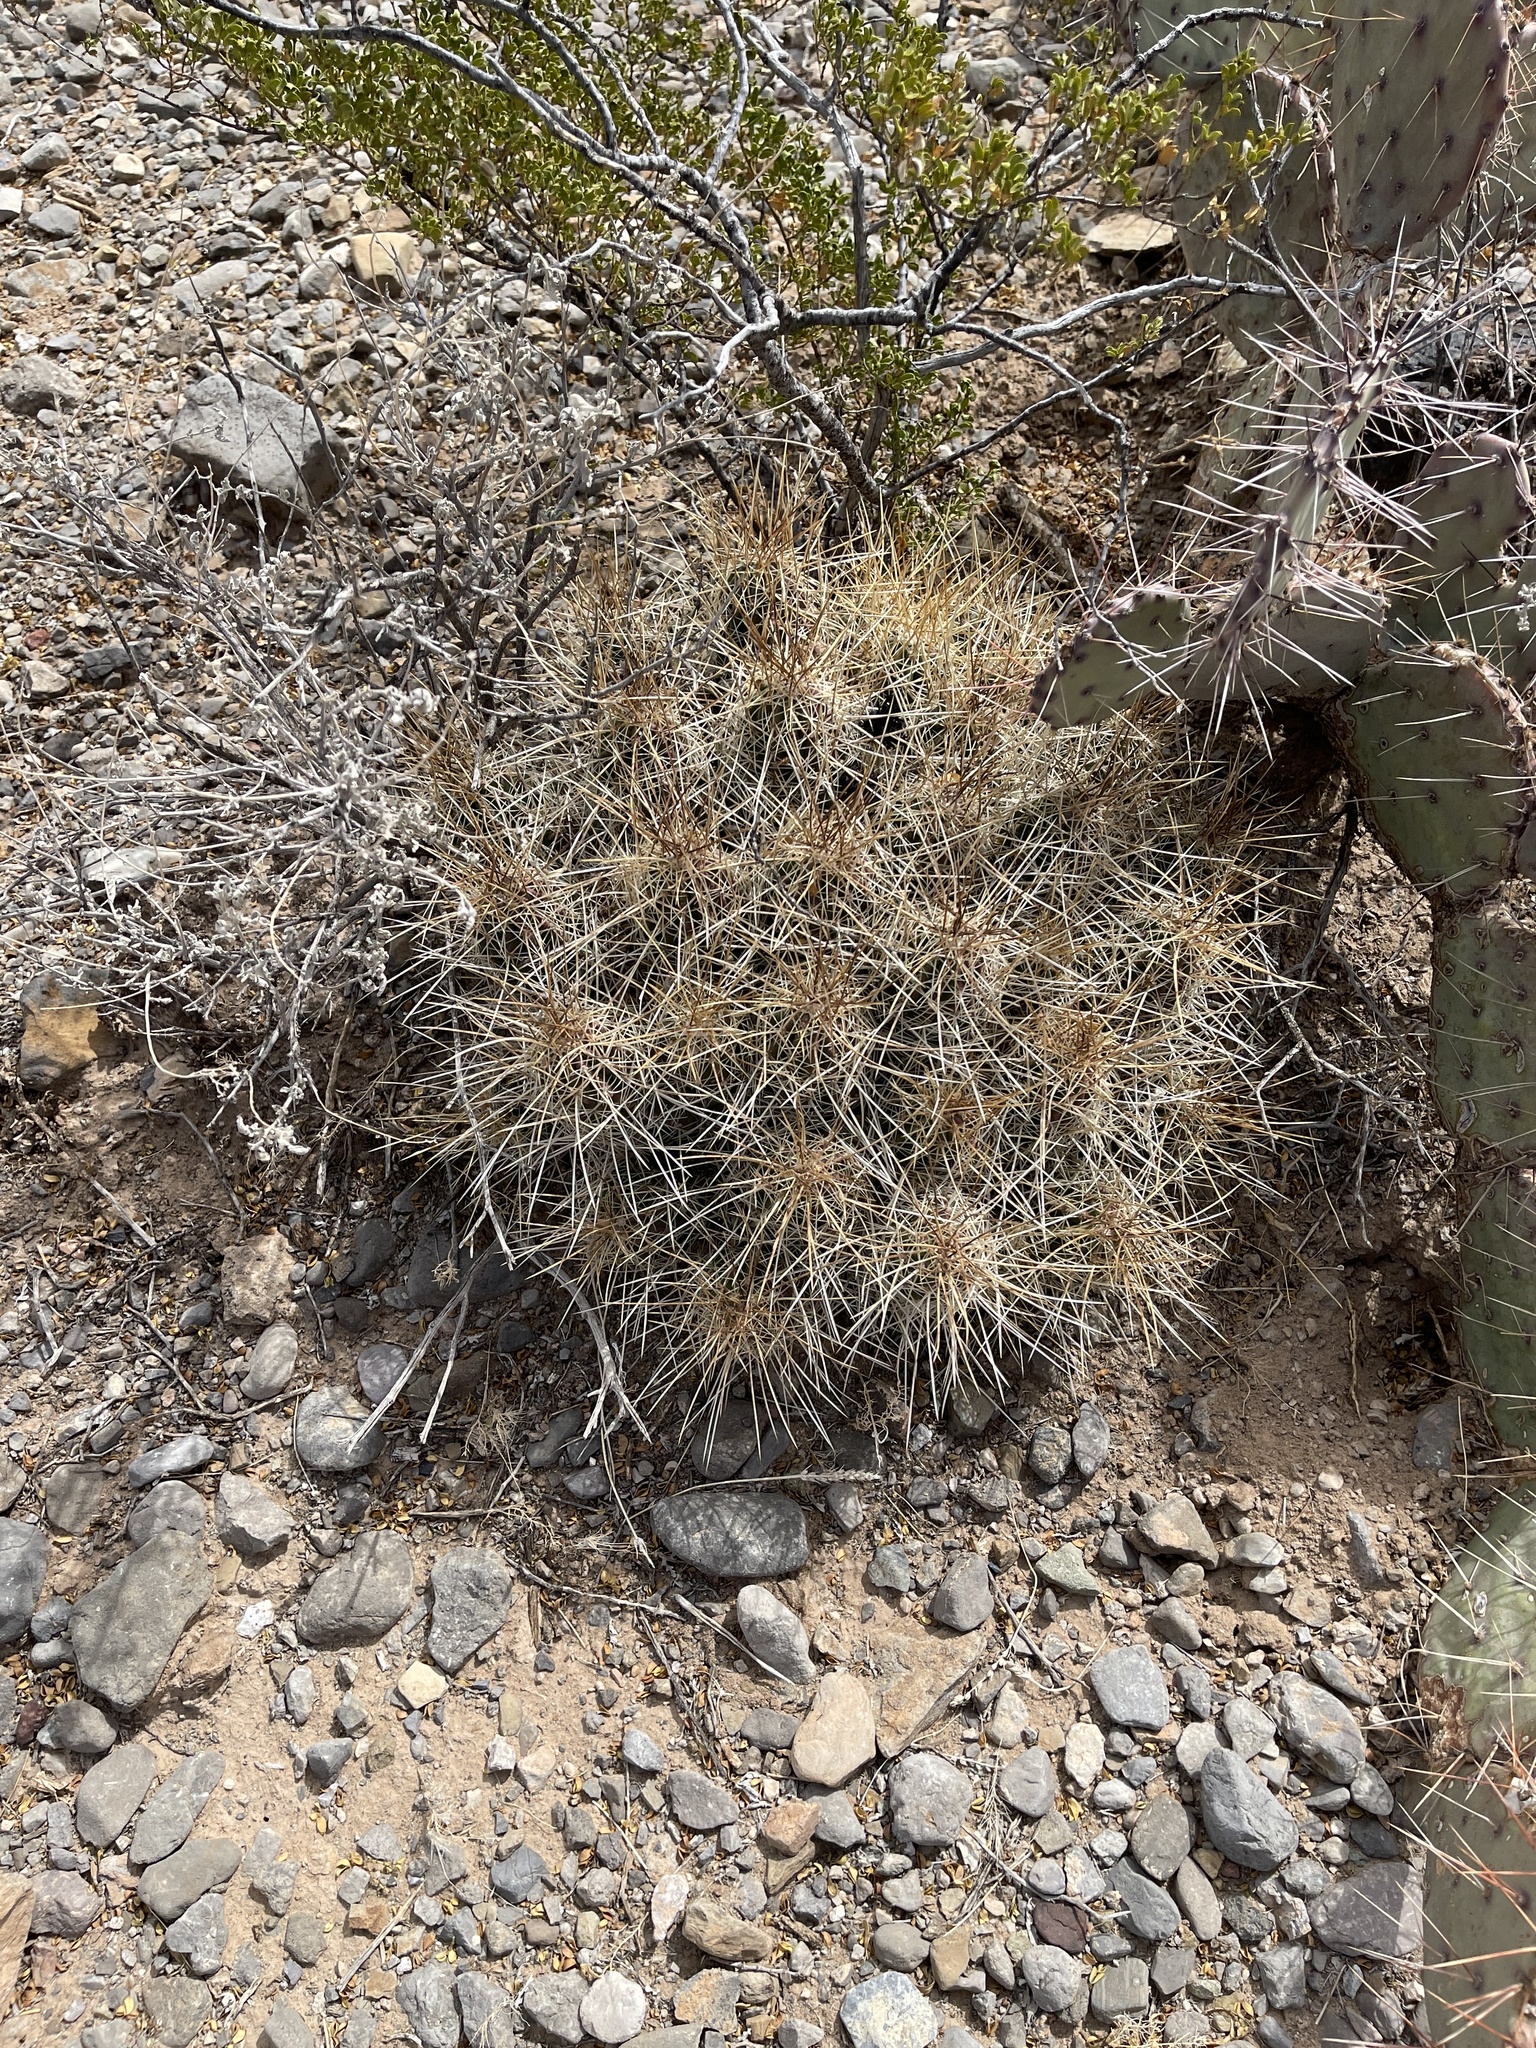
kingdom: Plantae
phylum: Tracheophyta
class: Magnoliopsida
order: Caryophyllales
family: Cactaceae
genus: Echinocereus
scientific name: Echinocereus stramineus
